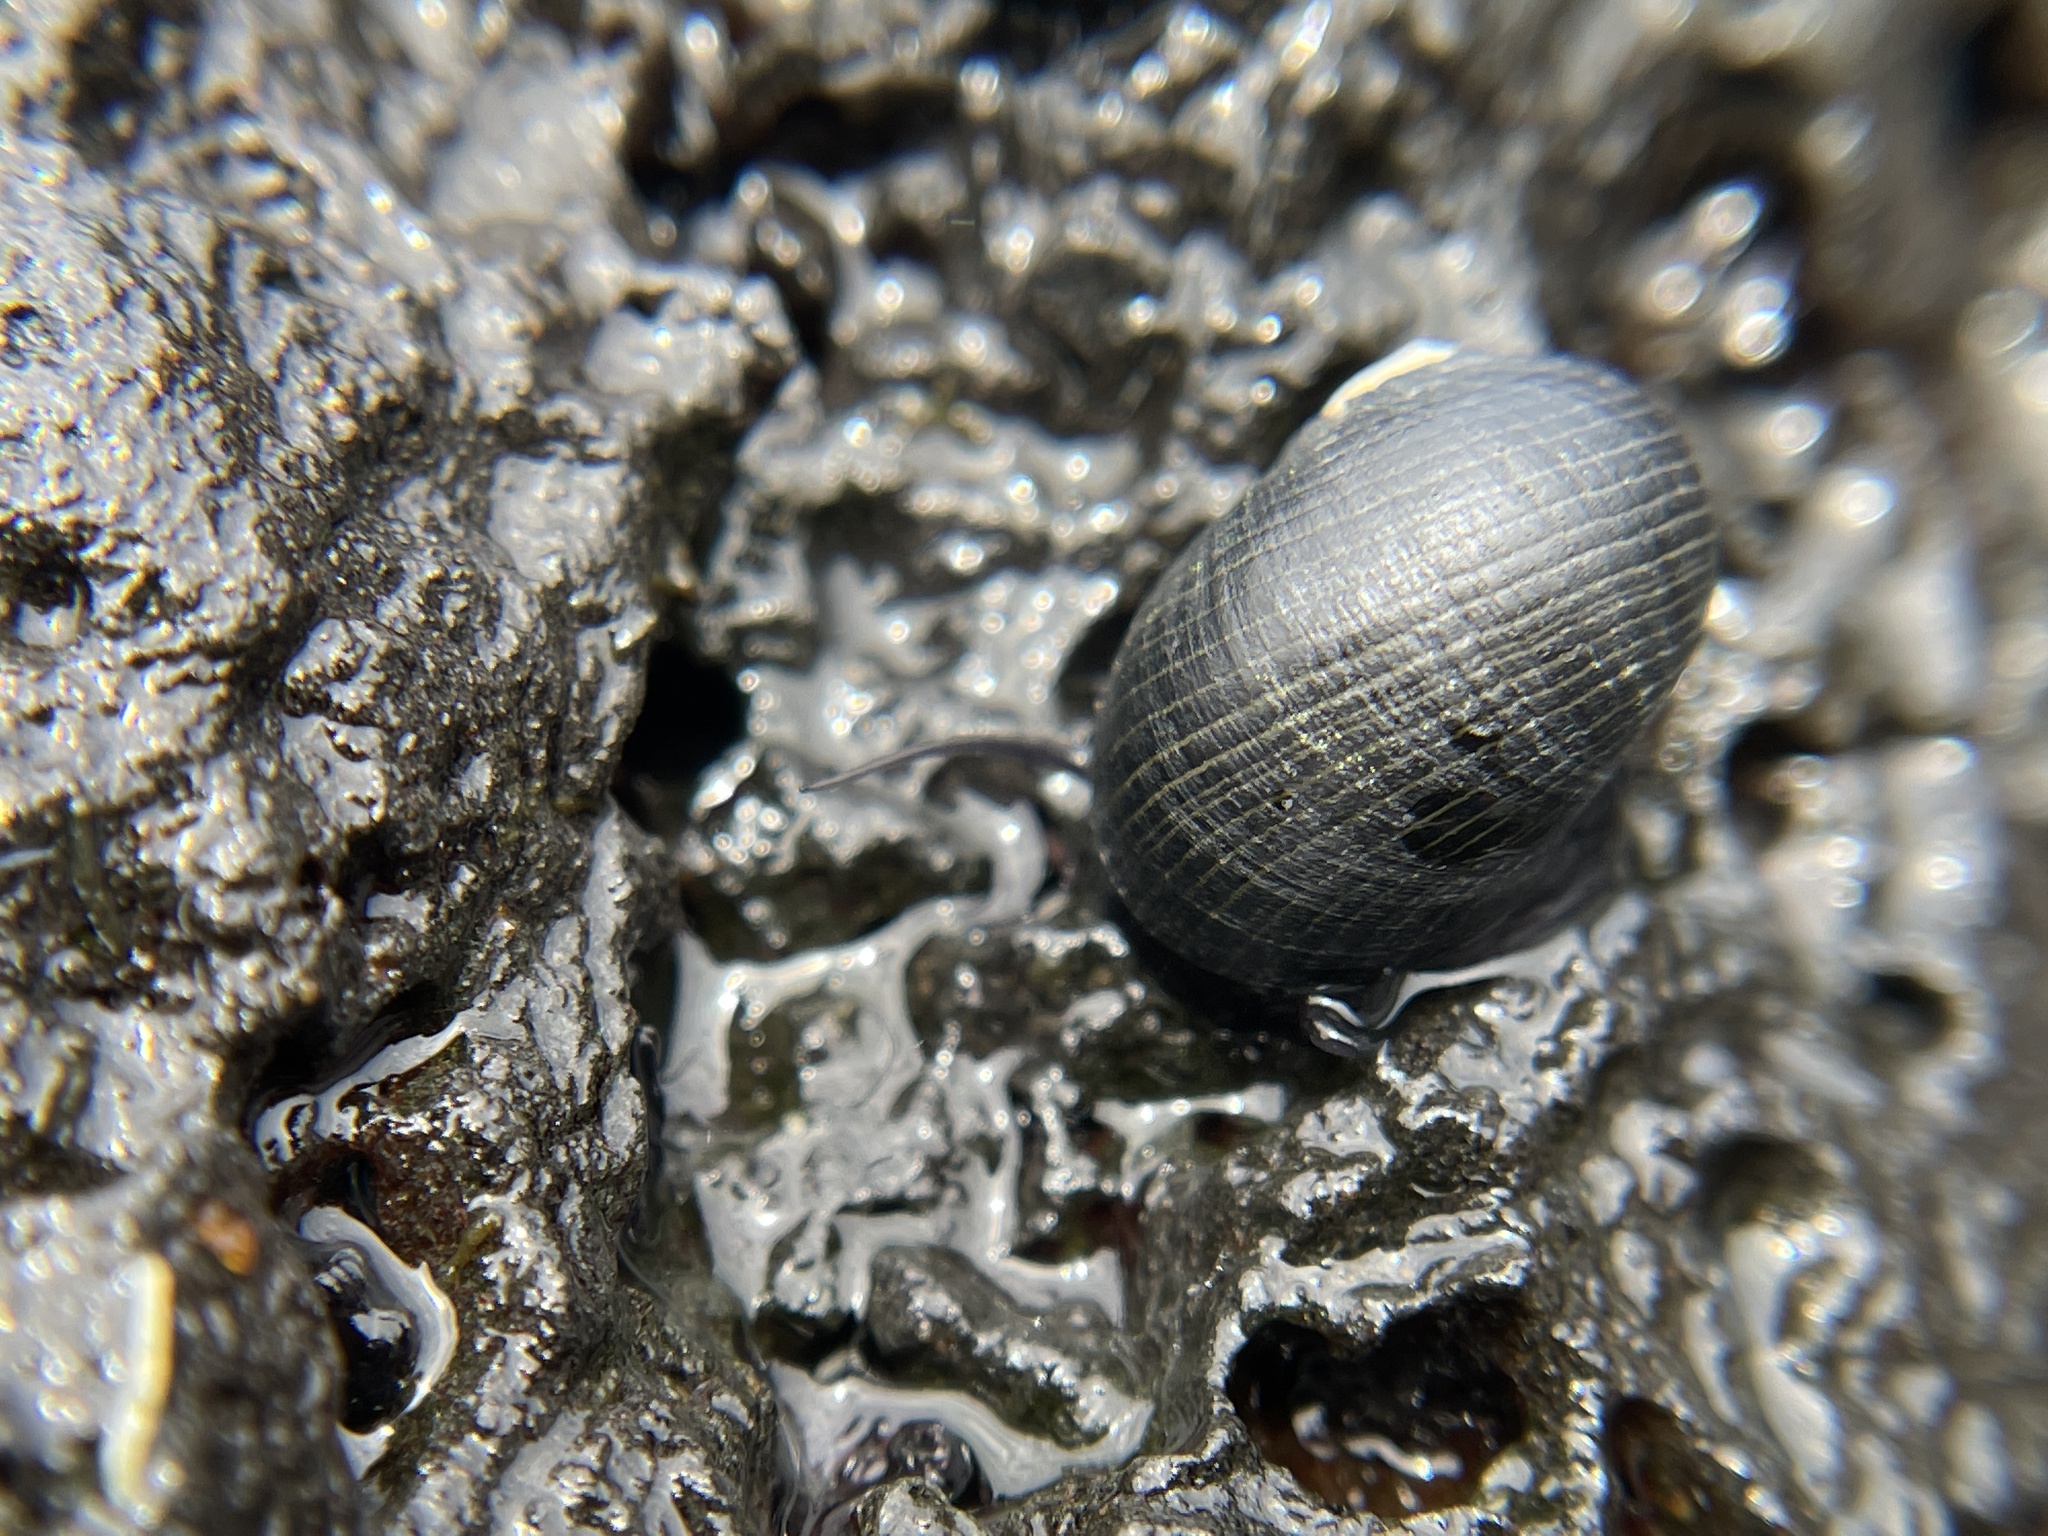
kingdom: Animalia
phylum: Mollusca
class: Gastropoda
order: Cycloneritida
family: Neritidae
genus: Nerita
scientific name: Nerita picea
